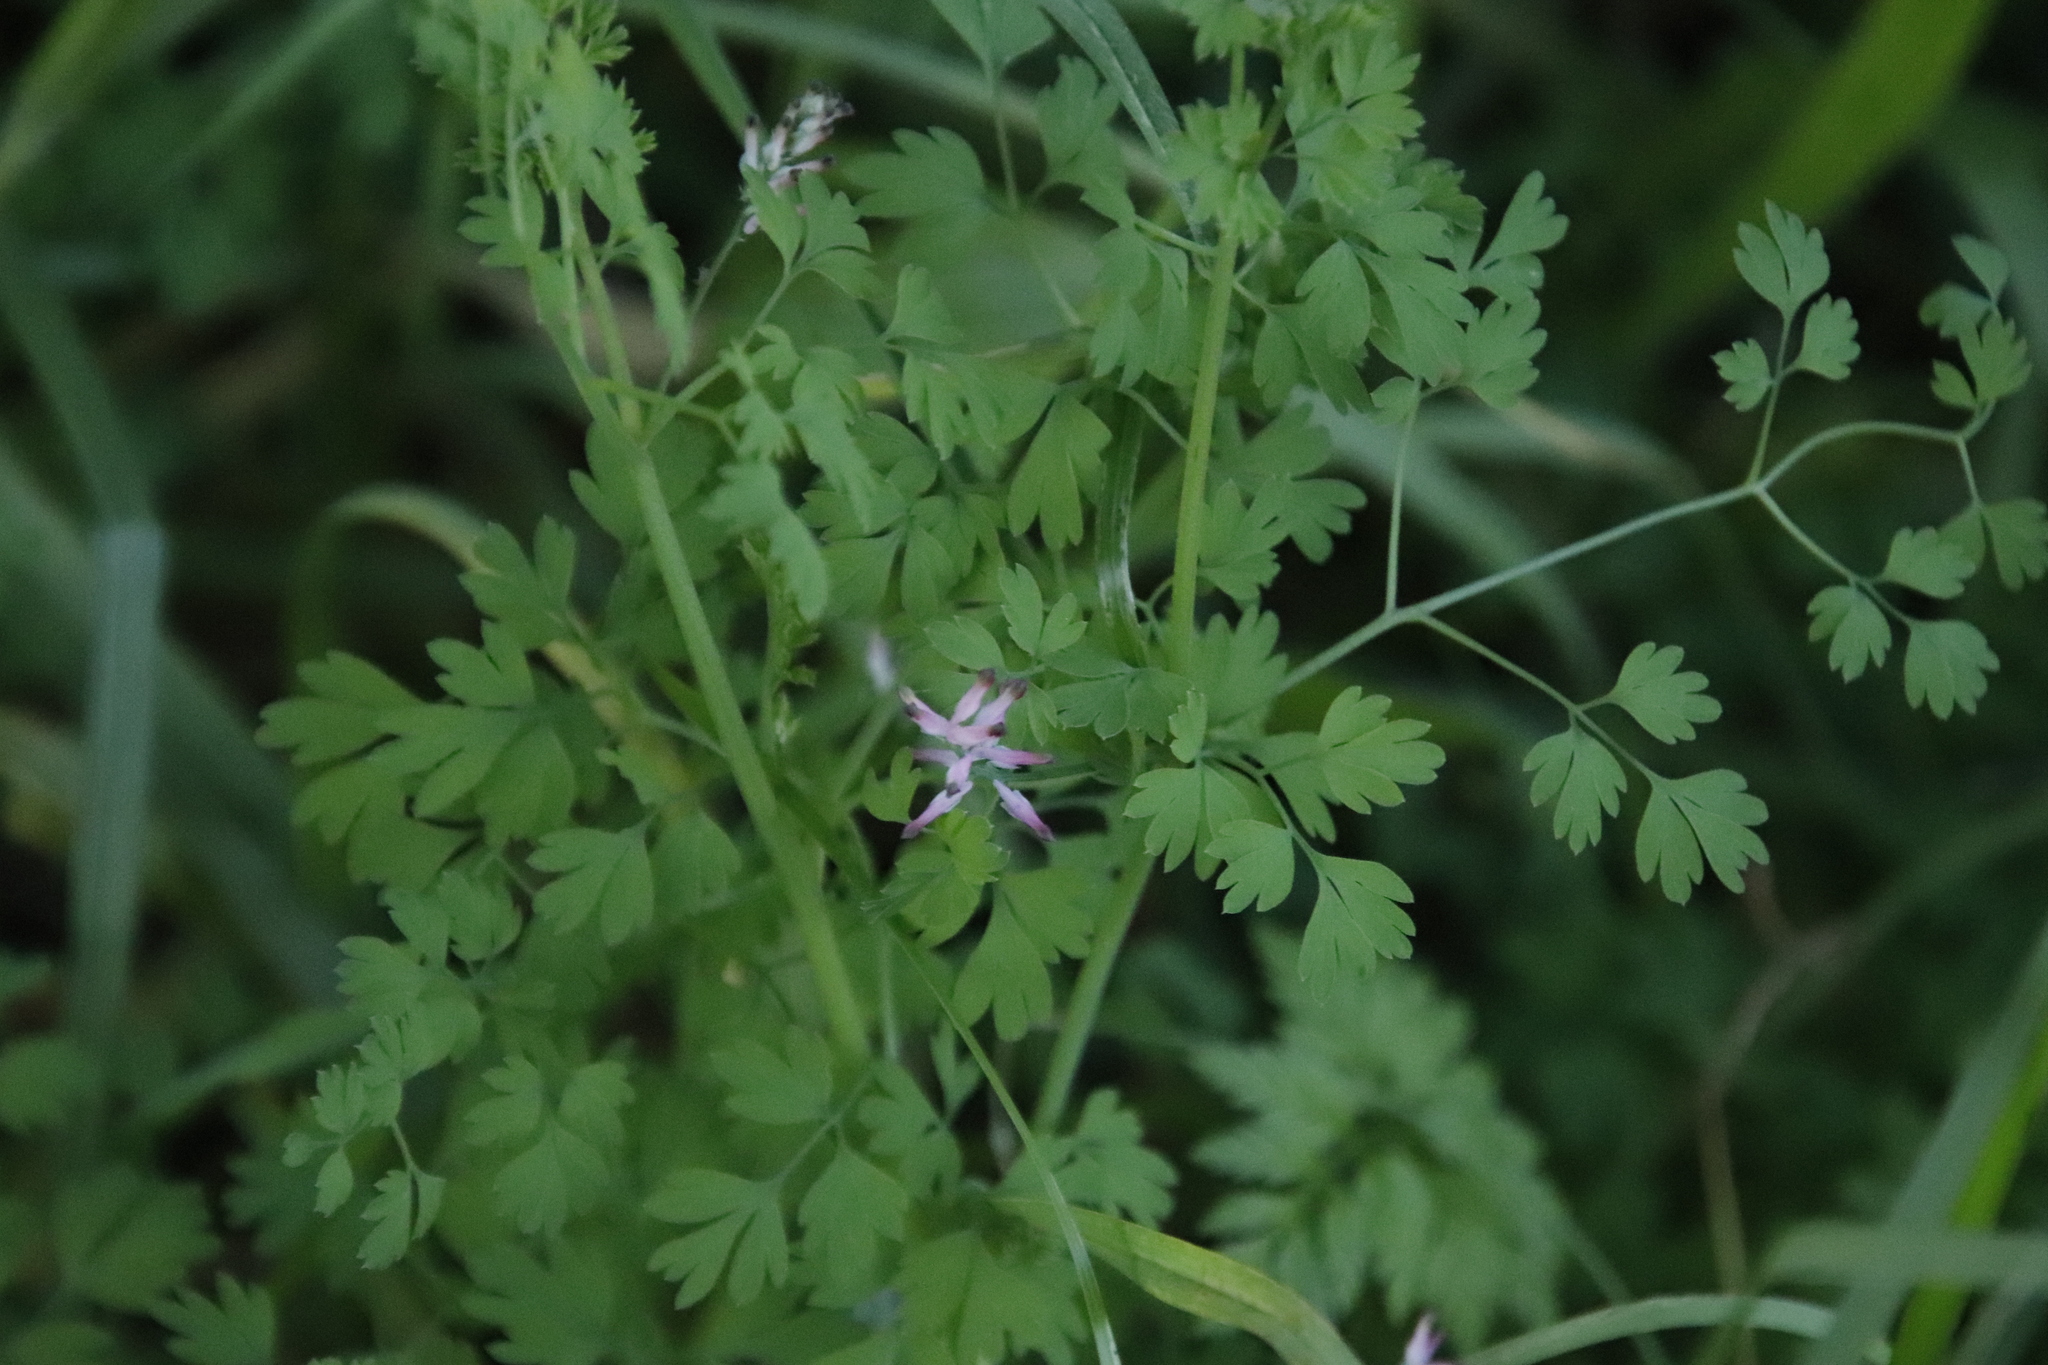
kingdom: Plantae
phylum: Tracheophyta
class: Magnoliopsida
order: Ranunculales
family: Papaveraceae
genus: Fumaria
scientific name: Fumaria muralis
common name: Common ramping-fumitory
